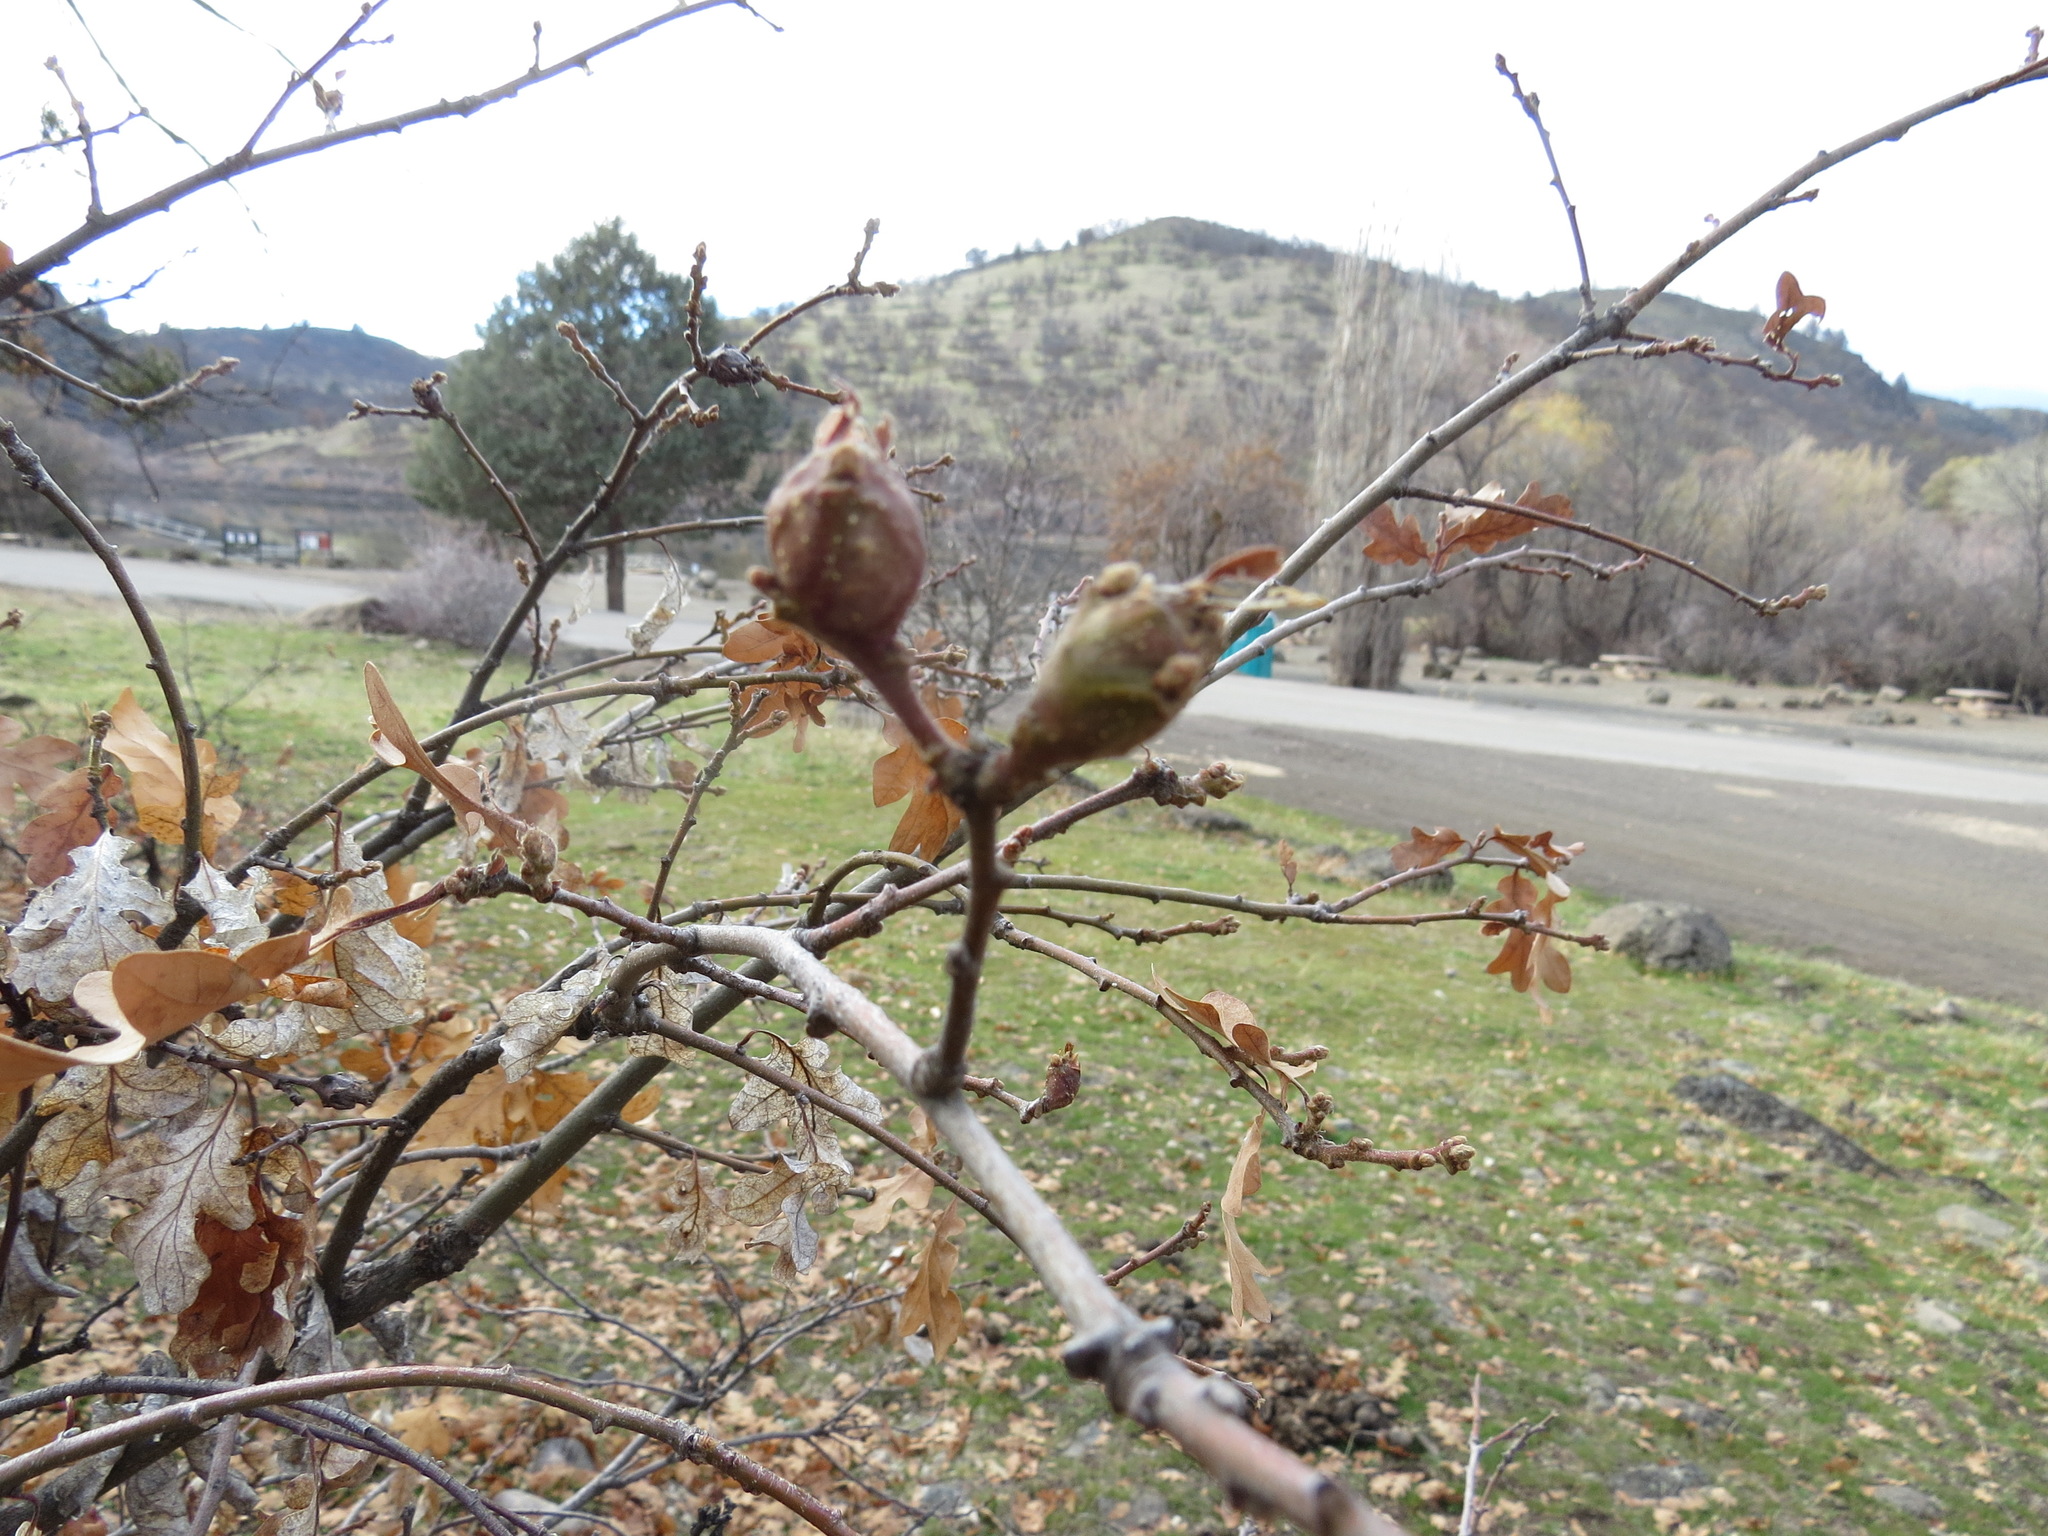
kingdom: Animalia
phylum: Arthropoda
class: Insecta
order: Hymenoptera
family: Cynipidae
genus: Andricus
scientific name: Andricus
